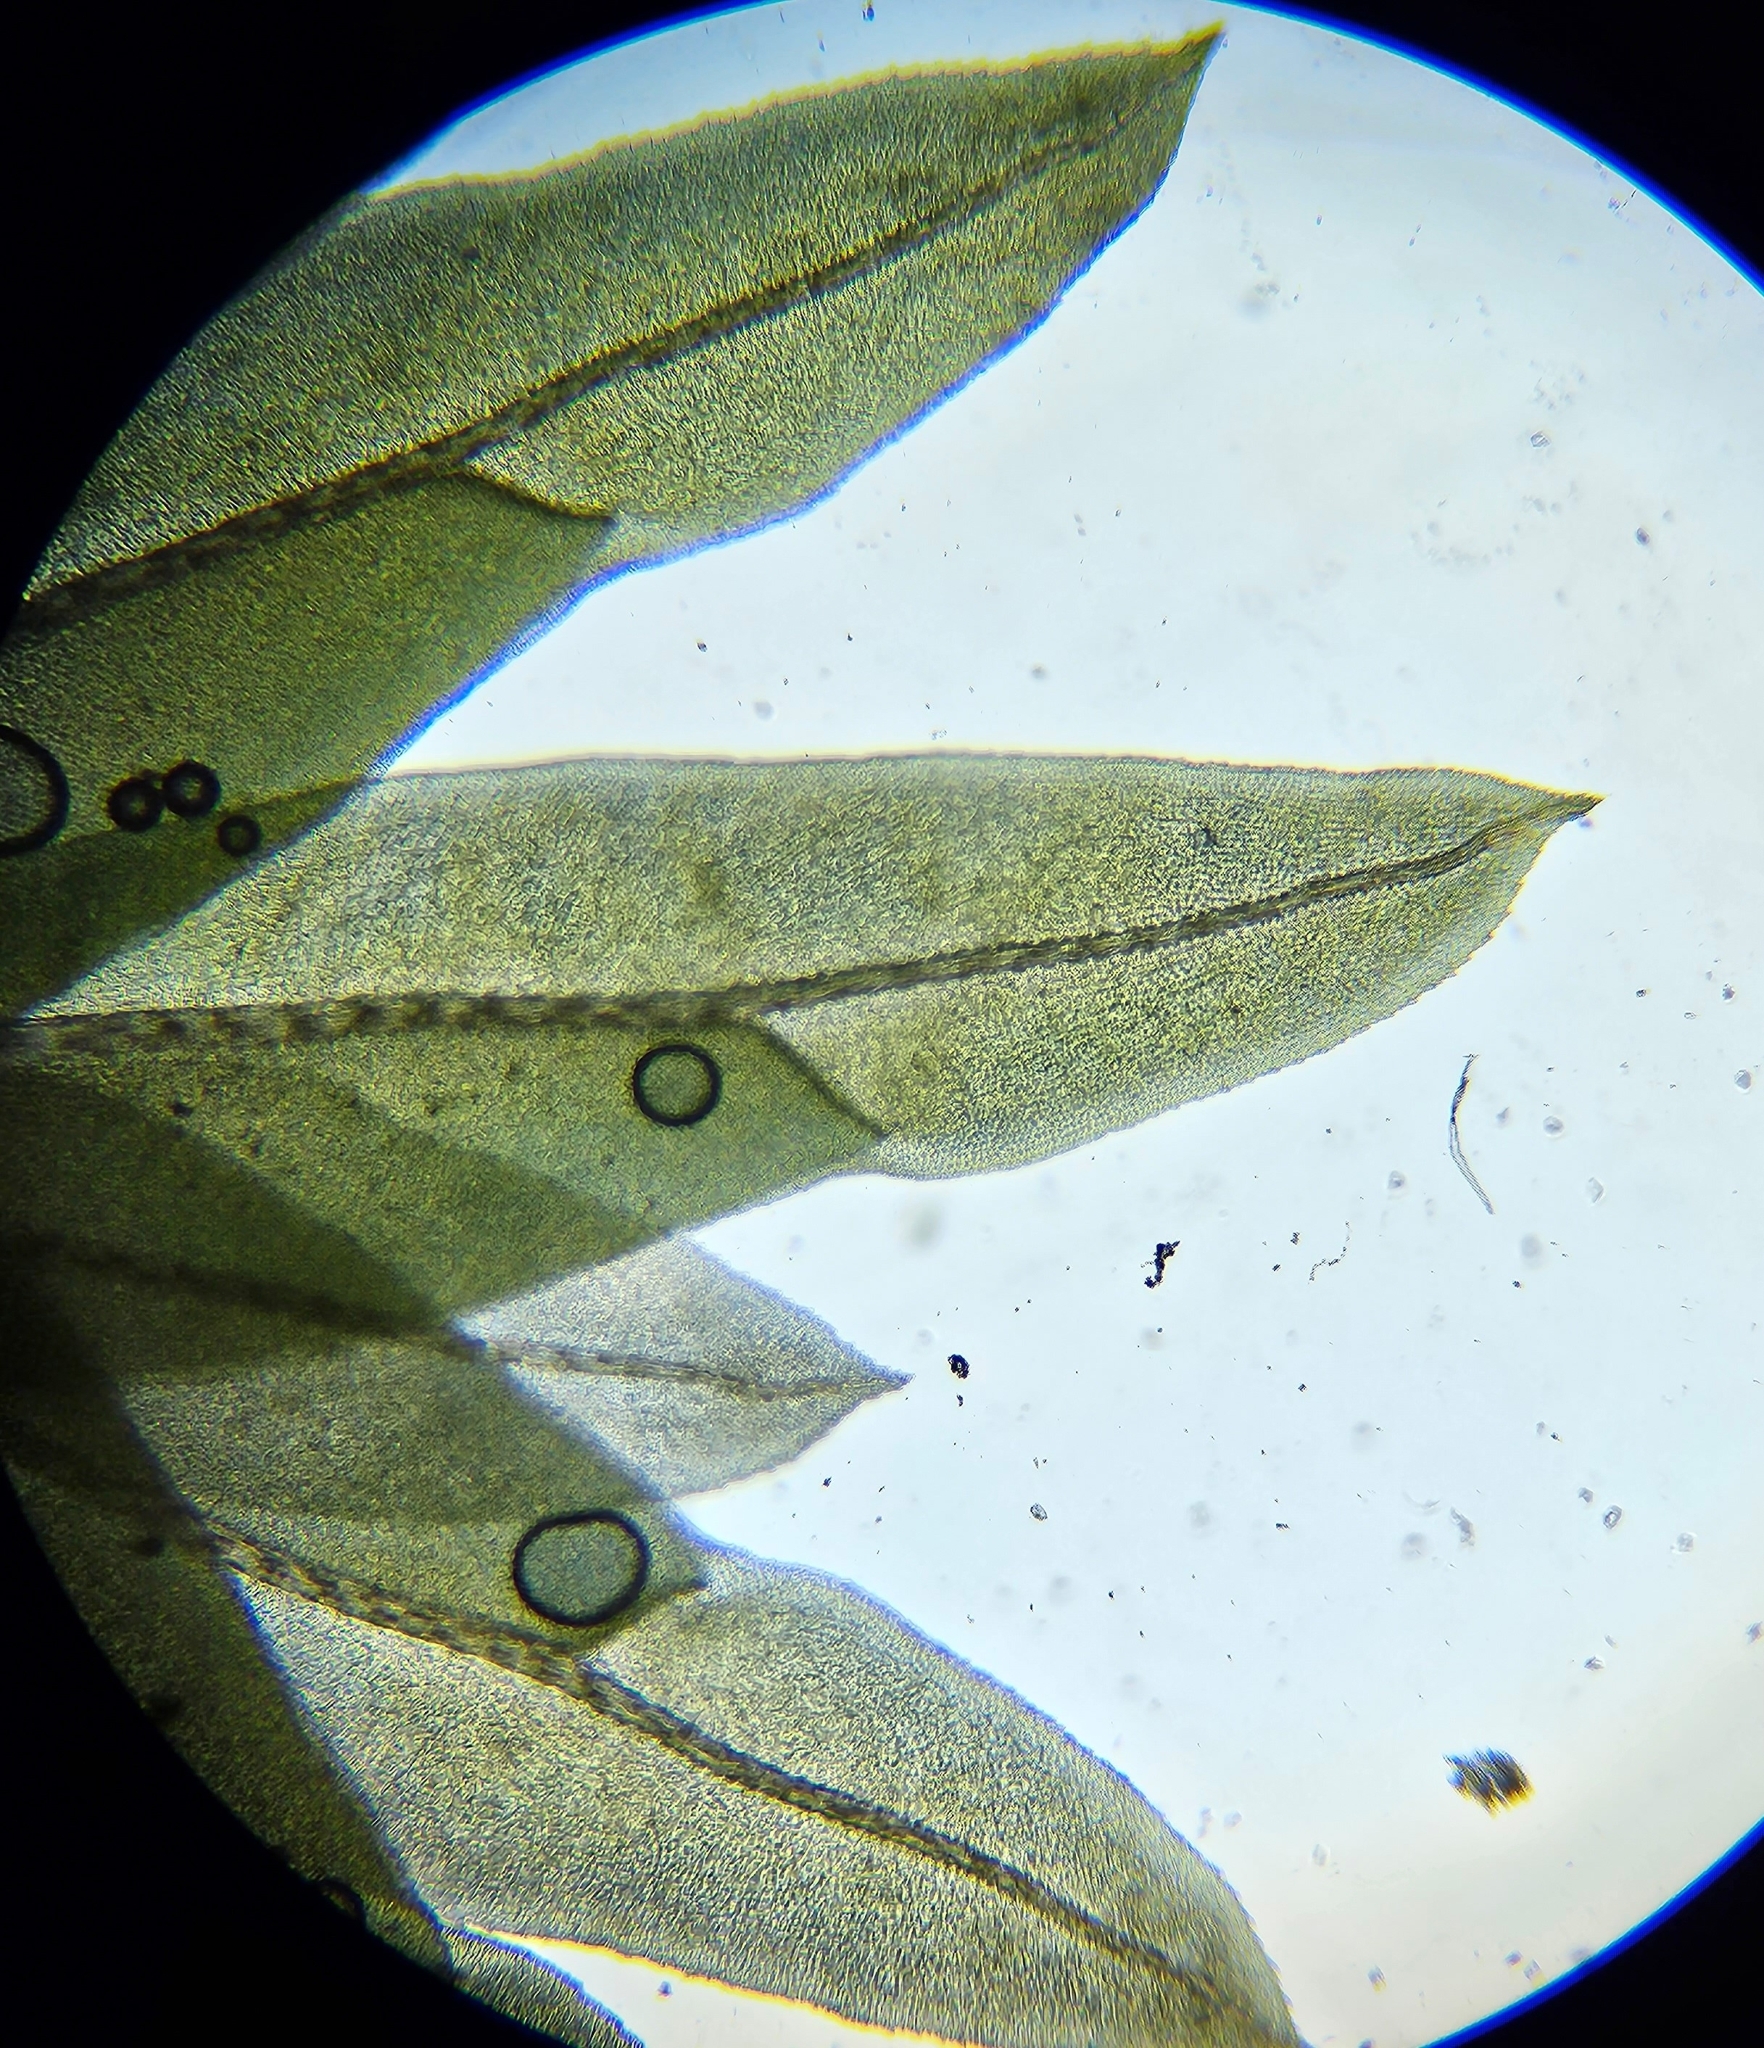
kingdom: Plantae
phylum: Bryophyta
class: Bryopsida
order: Dicranales
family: Fissidentaceae
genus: Fissidens
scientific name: Fissidens adianthoides
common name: Maidenhair pocket moss
